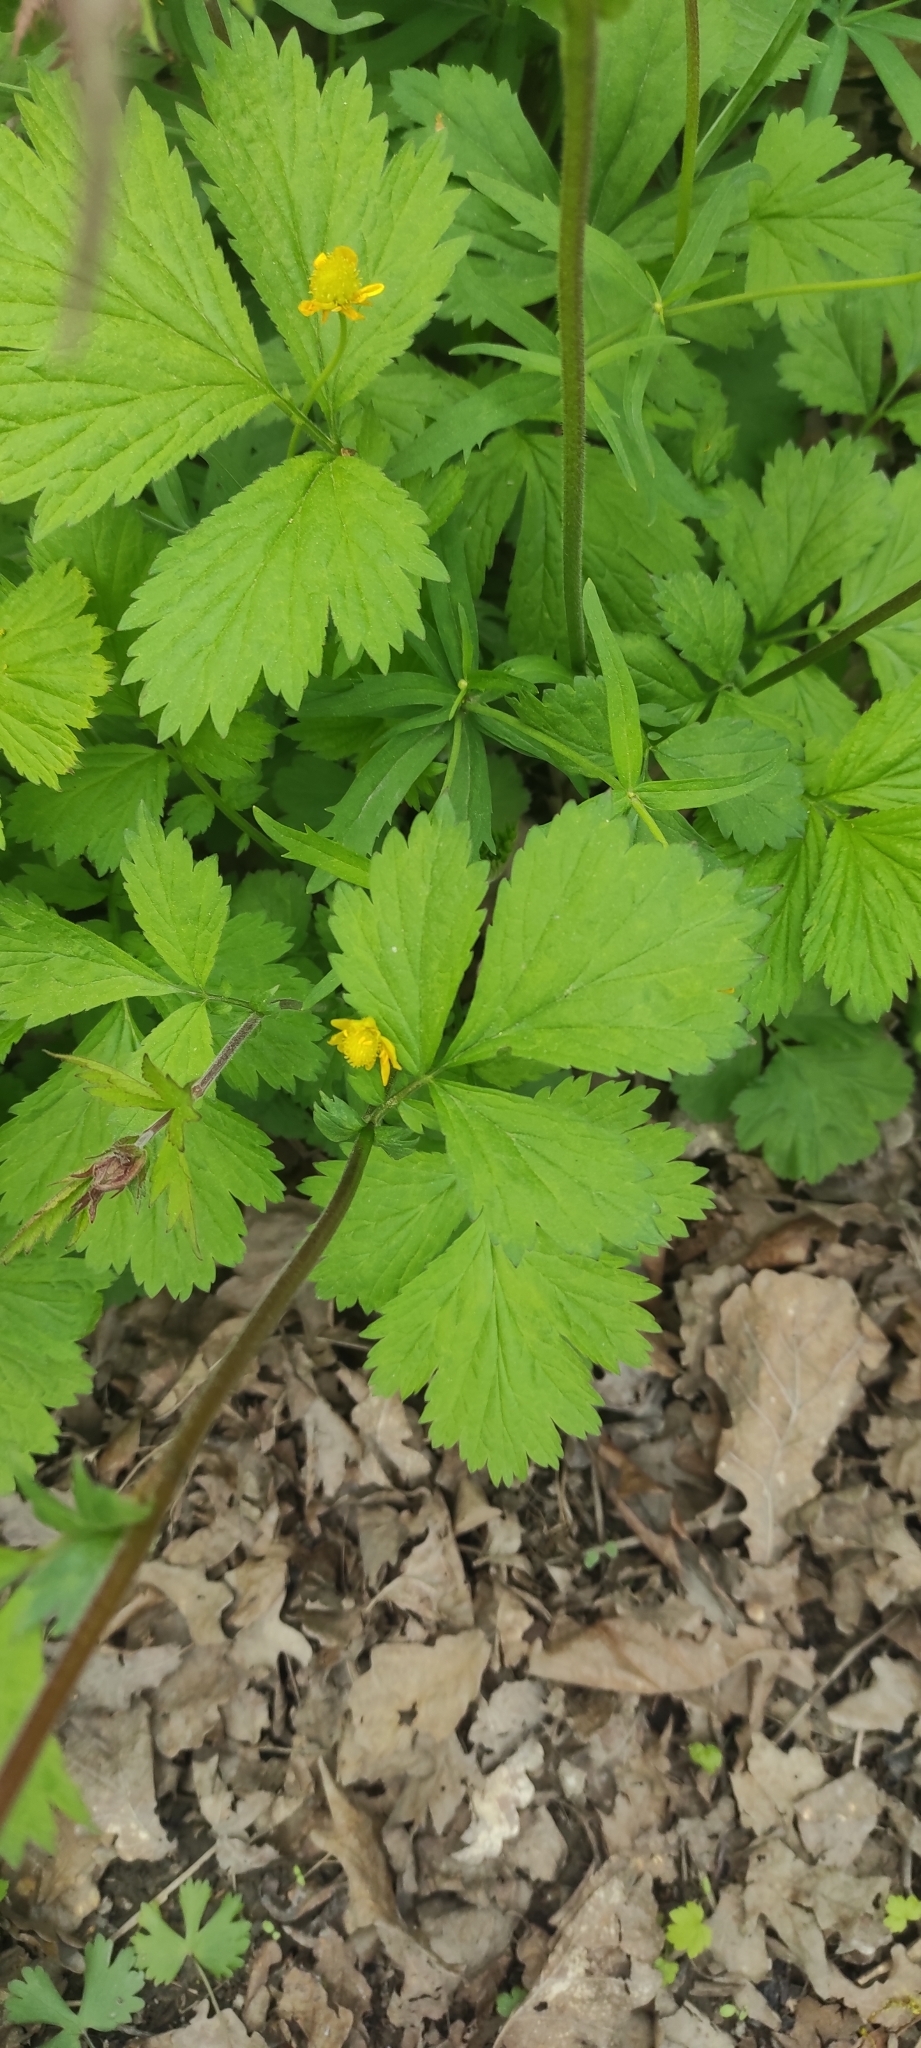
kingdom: Plantae
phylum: Tracheophyta
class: Magnoliopsida
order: Rosales
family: Rosaceae
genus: Geum
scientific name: Geum rivale
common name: Water avens
